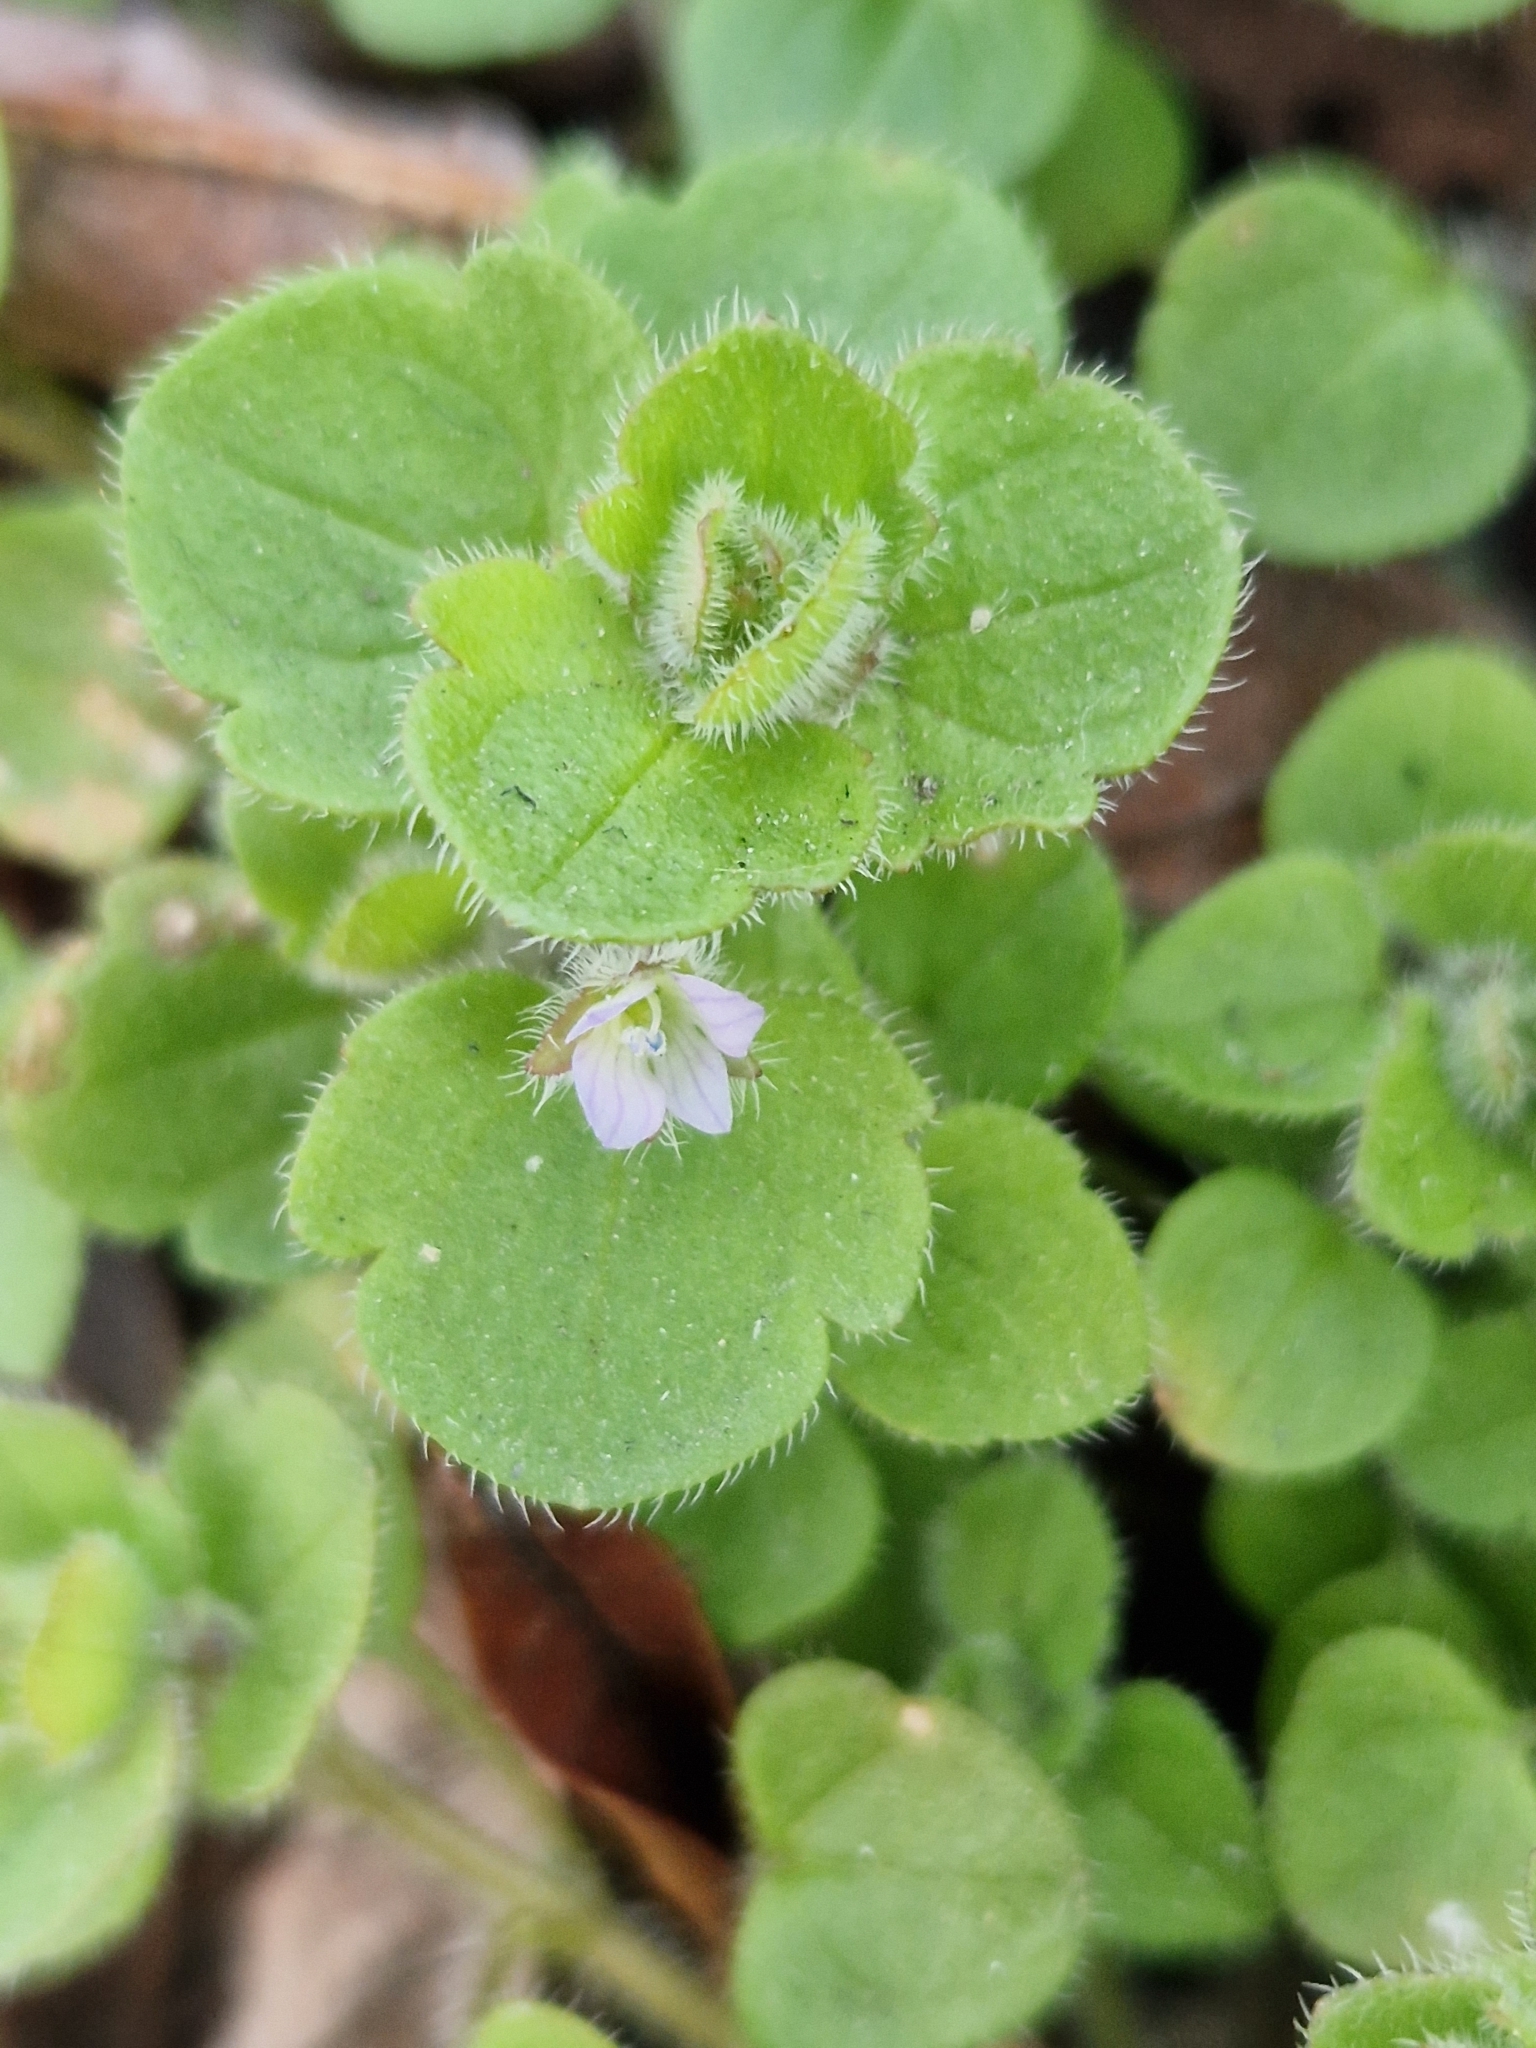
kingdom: Plantae
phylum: Tracheophyta
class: Magnoliopsida
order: Lamiales
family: Plantaginaceae
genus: Veronica
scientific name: Veronica sublobata
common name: False ivy-leaved speedwell
